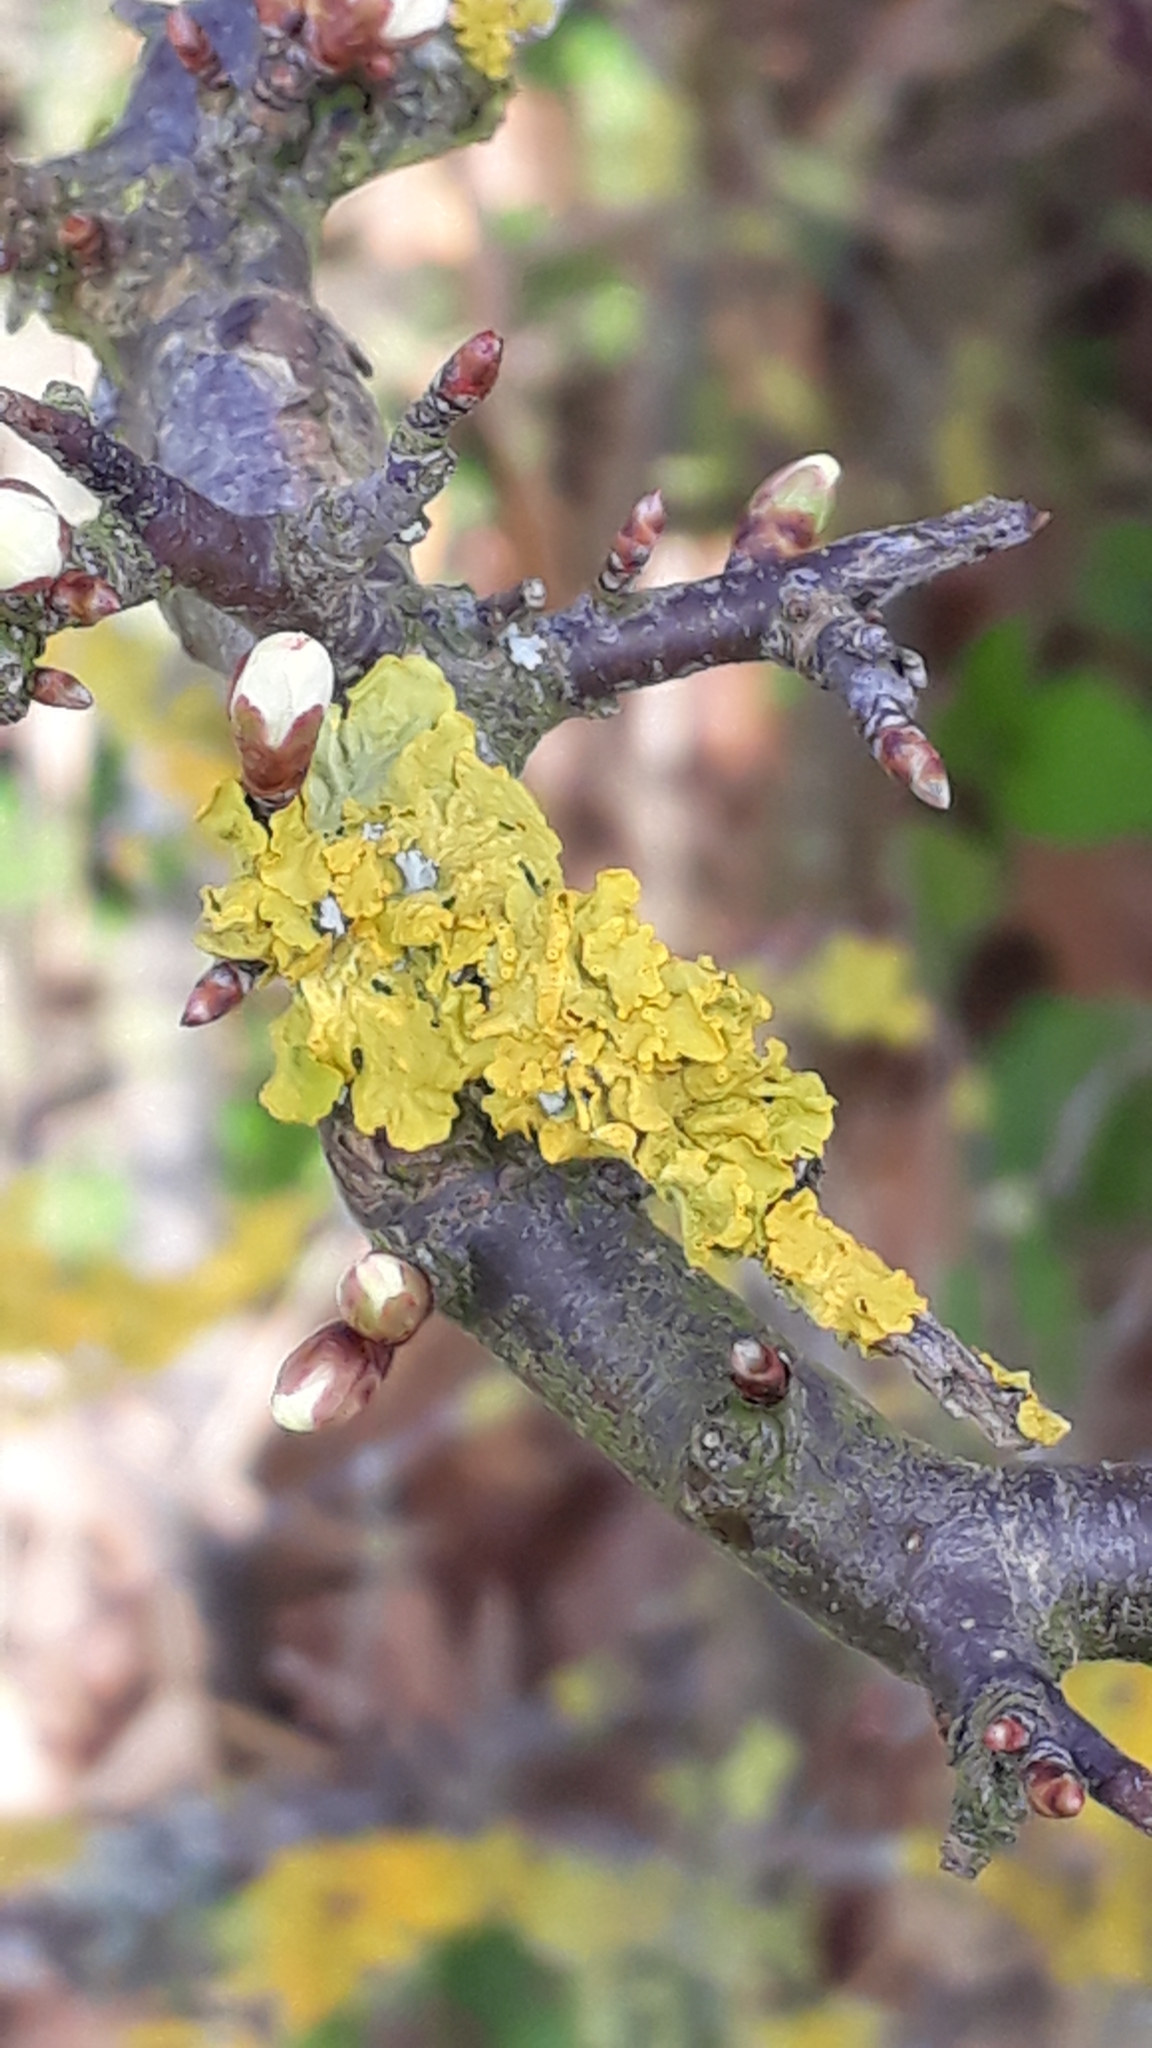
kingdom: Plantae
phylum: Tracheophyta
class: Magnoliopsida
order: Rosales
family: Rosaceae
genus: Prunus
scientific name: Prunus spinosa
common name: Blackthorn
